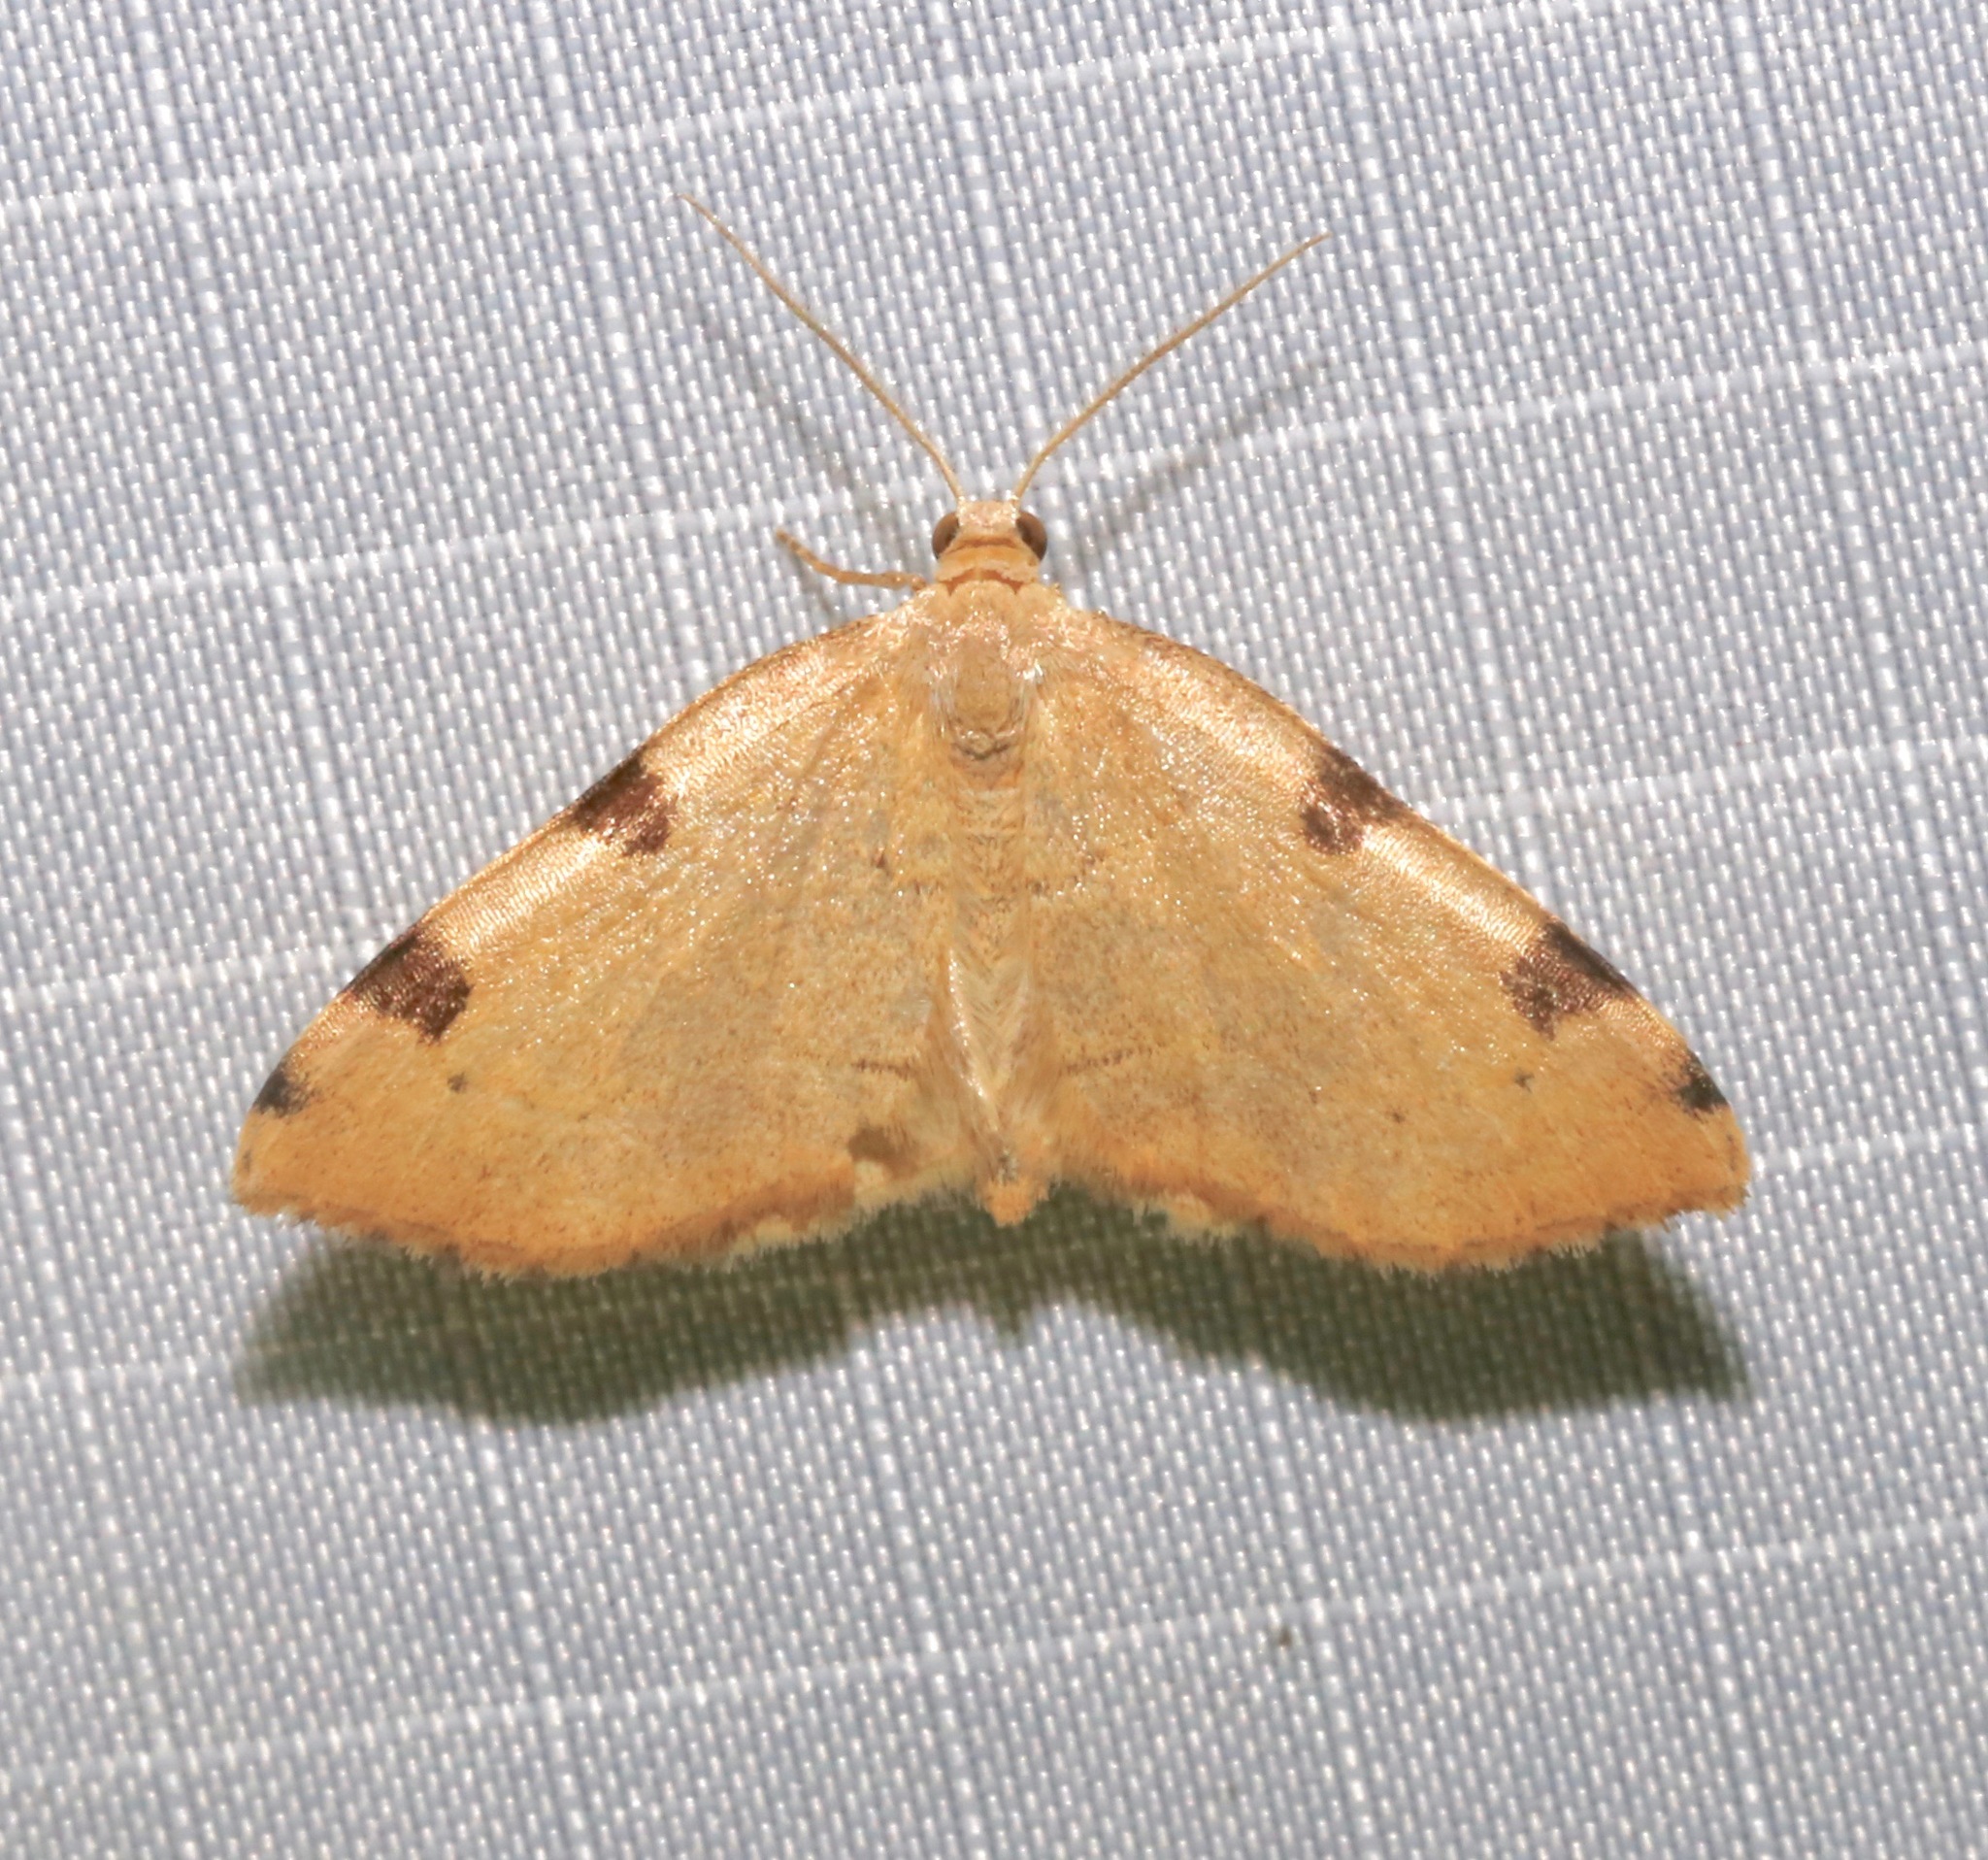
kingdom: Animalia
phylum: Arthropoda
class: Insecta
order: Lepidoptera
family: Geometridae
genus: Heterophleps
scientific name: Heterophleps triguttaria
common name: Three-spotted fillip
